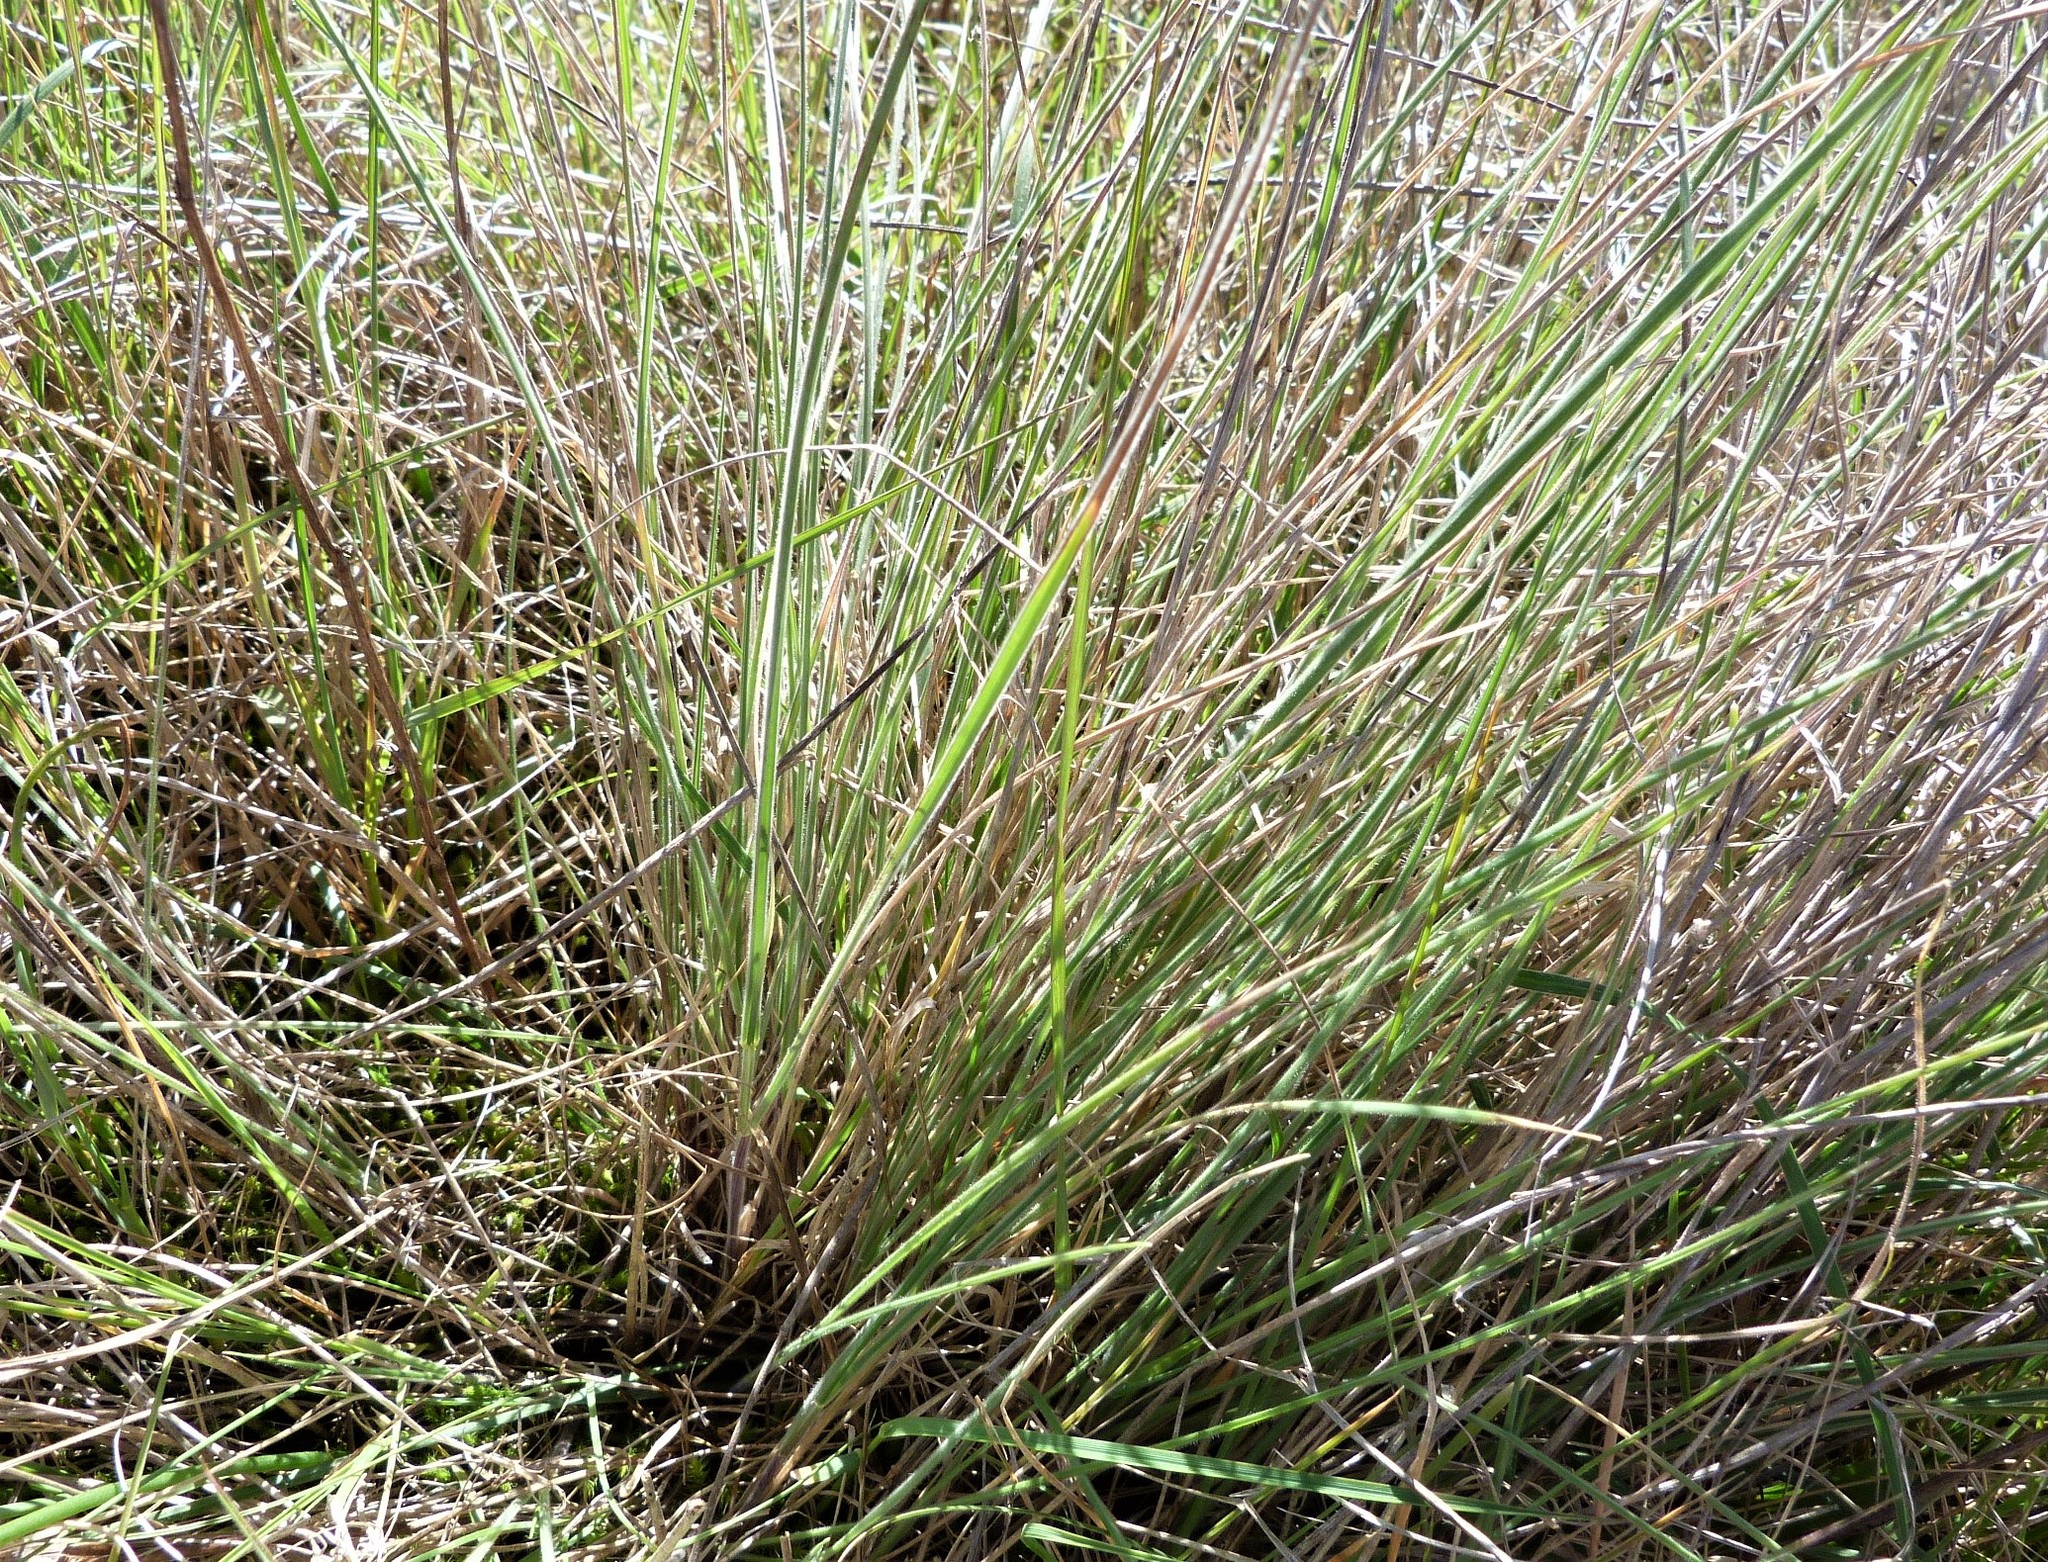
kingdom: Plantae
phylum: Tracheophyta
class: Liliopsida
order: Poales
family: Poaceae
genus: Anthosachne
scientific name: Anthosachne solandri
